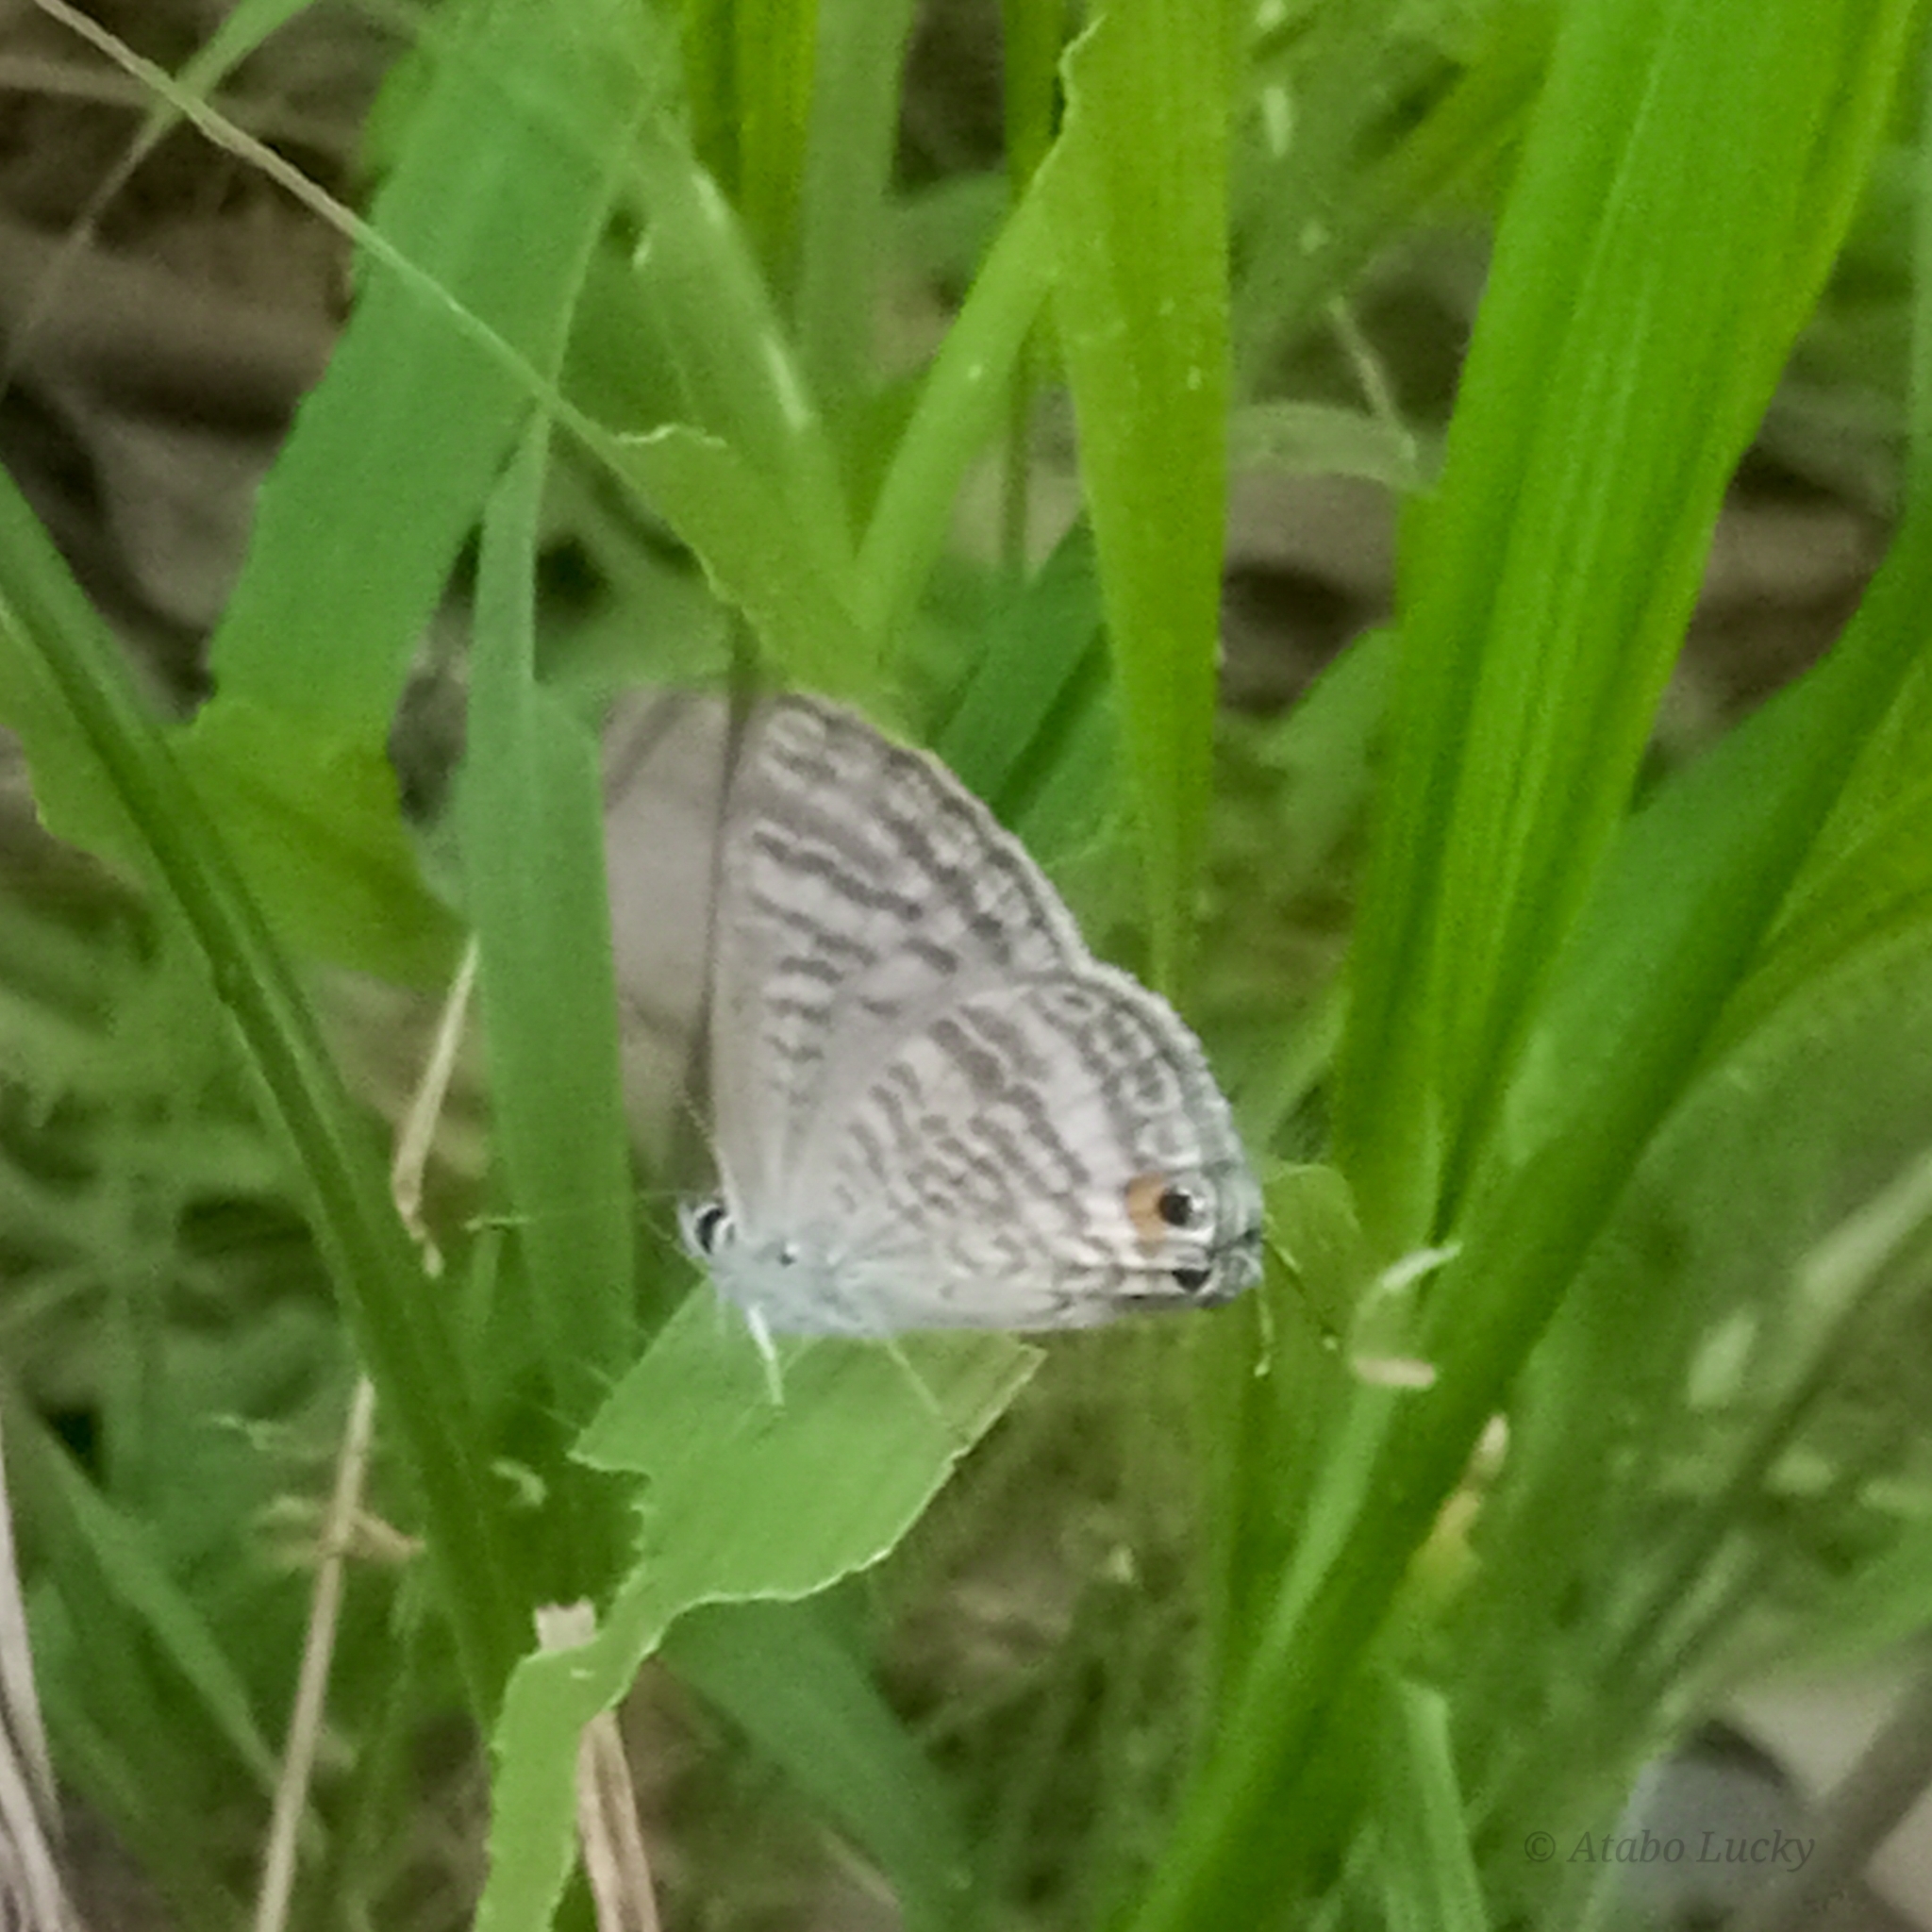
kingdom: Animalia
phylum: Arthropoda
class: Insecta
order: Lepidoptera
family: Lycaenidae
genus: Lampides
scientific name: Lampides boeticus
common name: Long-tailed blue
